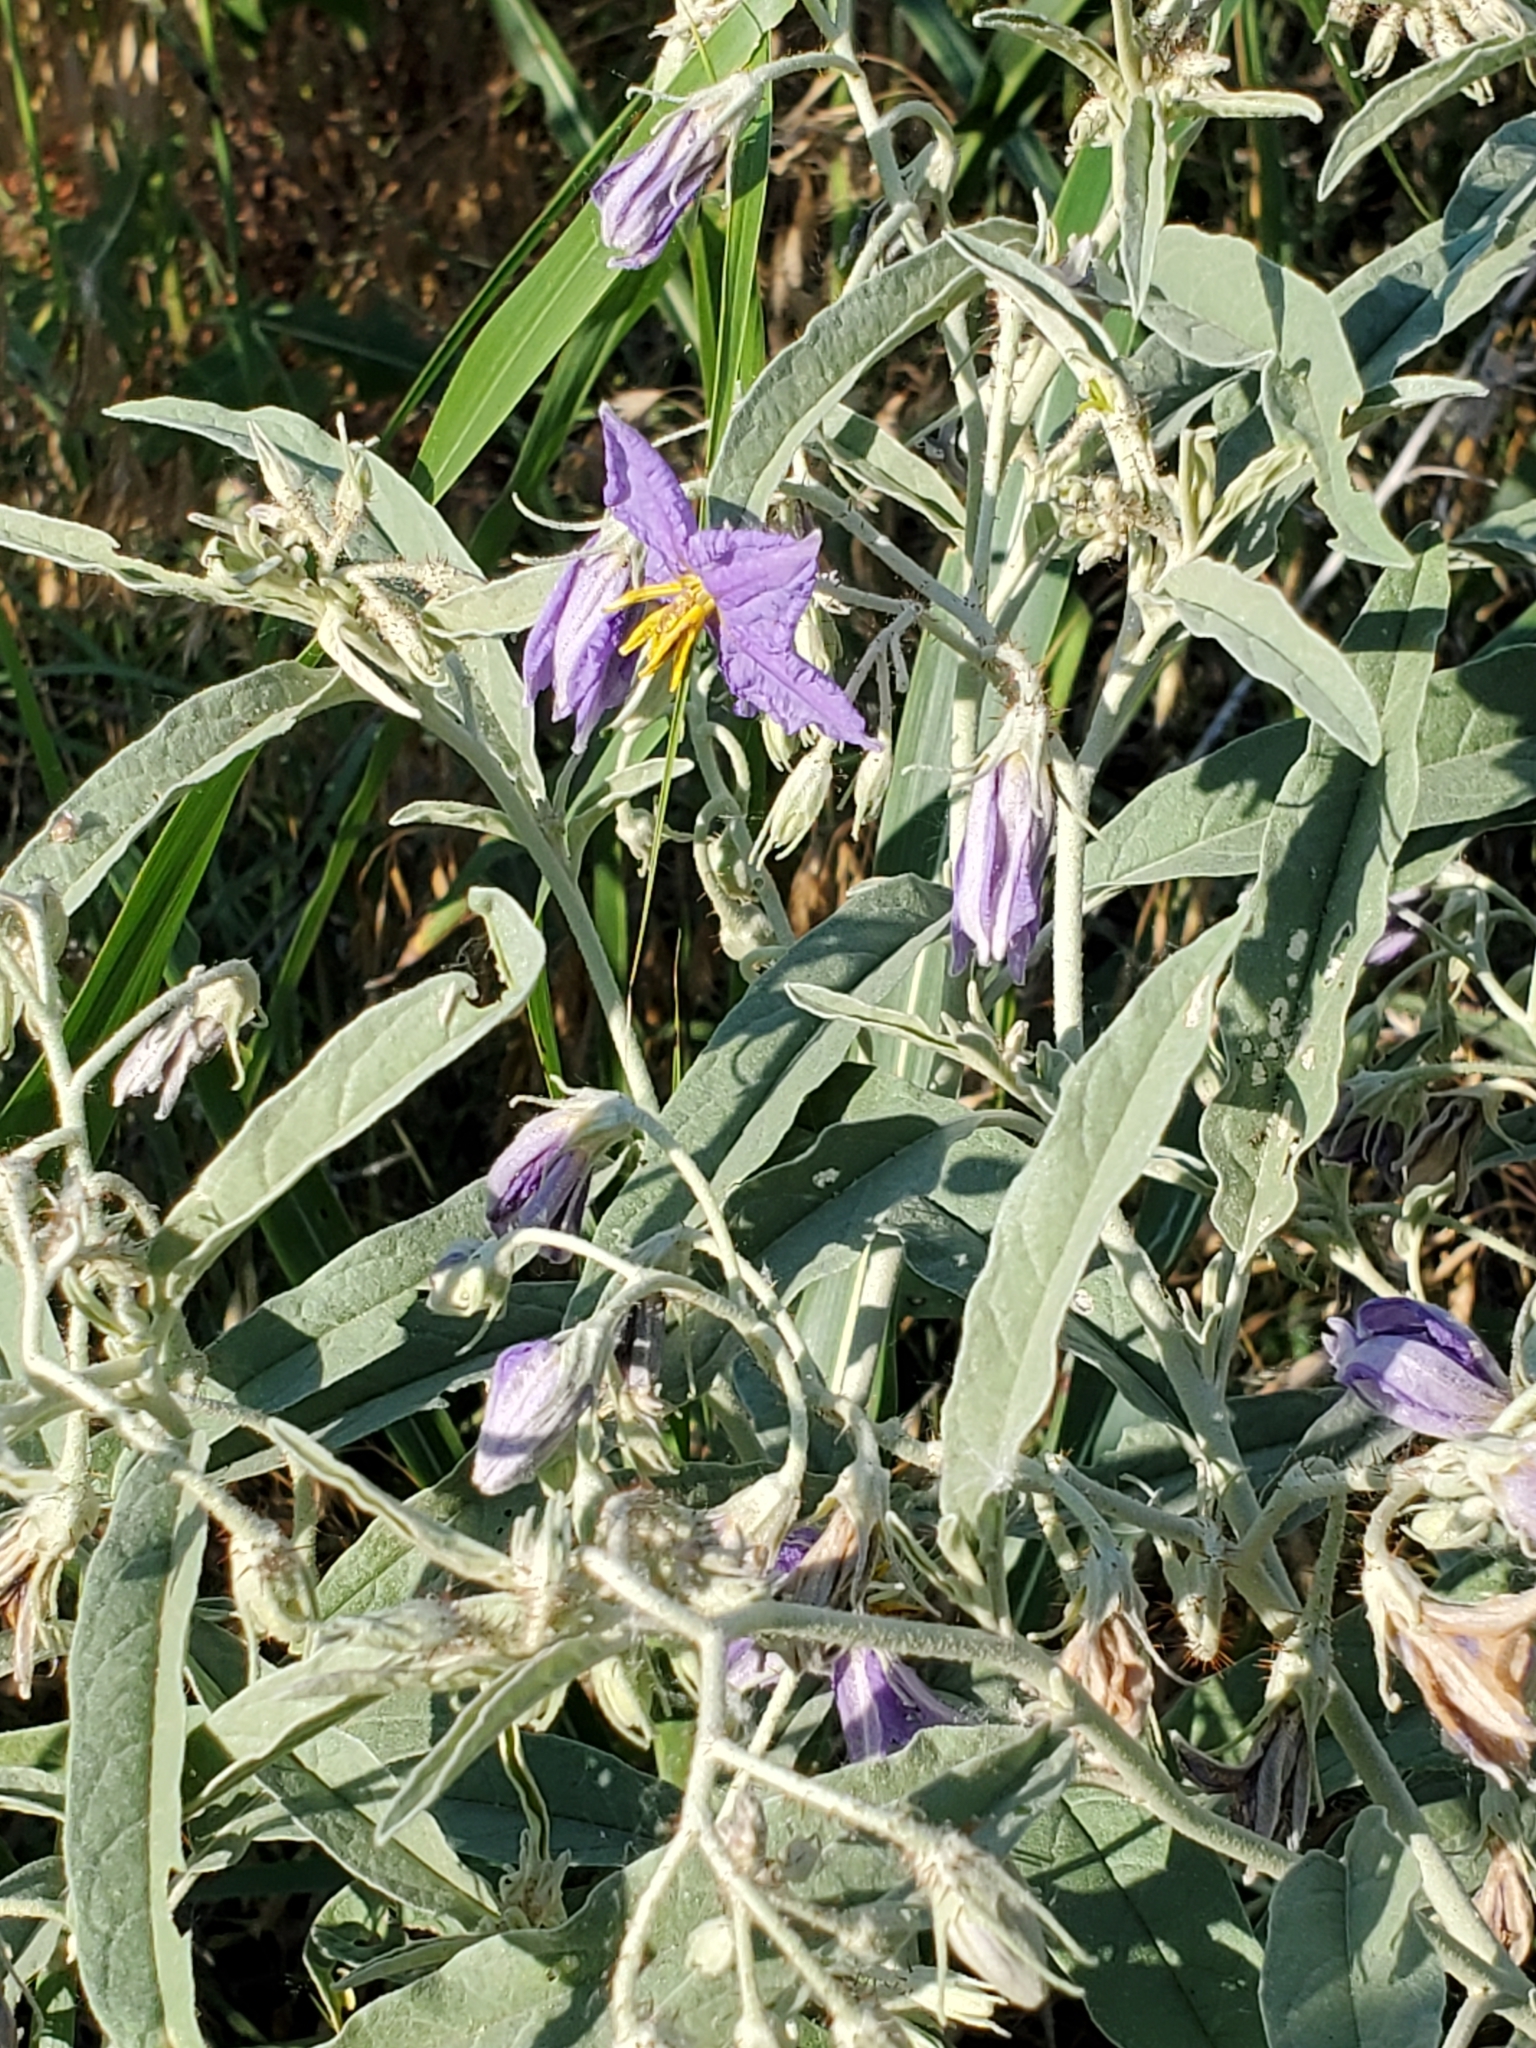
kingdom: Plantae
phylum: Tracheophyta
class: Magnoliopsida
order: Solanales
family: Solanaceae
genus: Solanum
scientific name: Solanum elaeagnifolium
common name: Silverleaf nightshade
